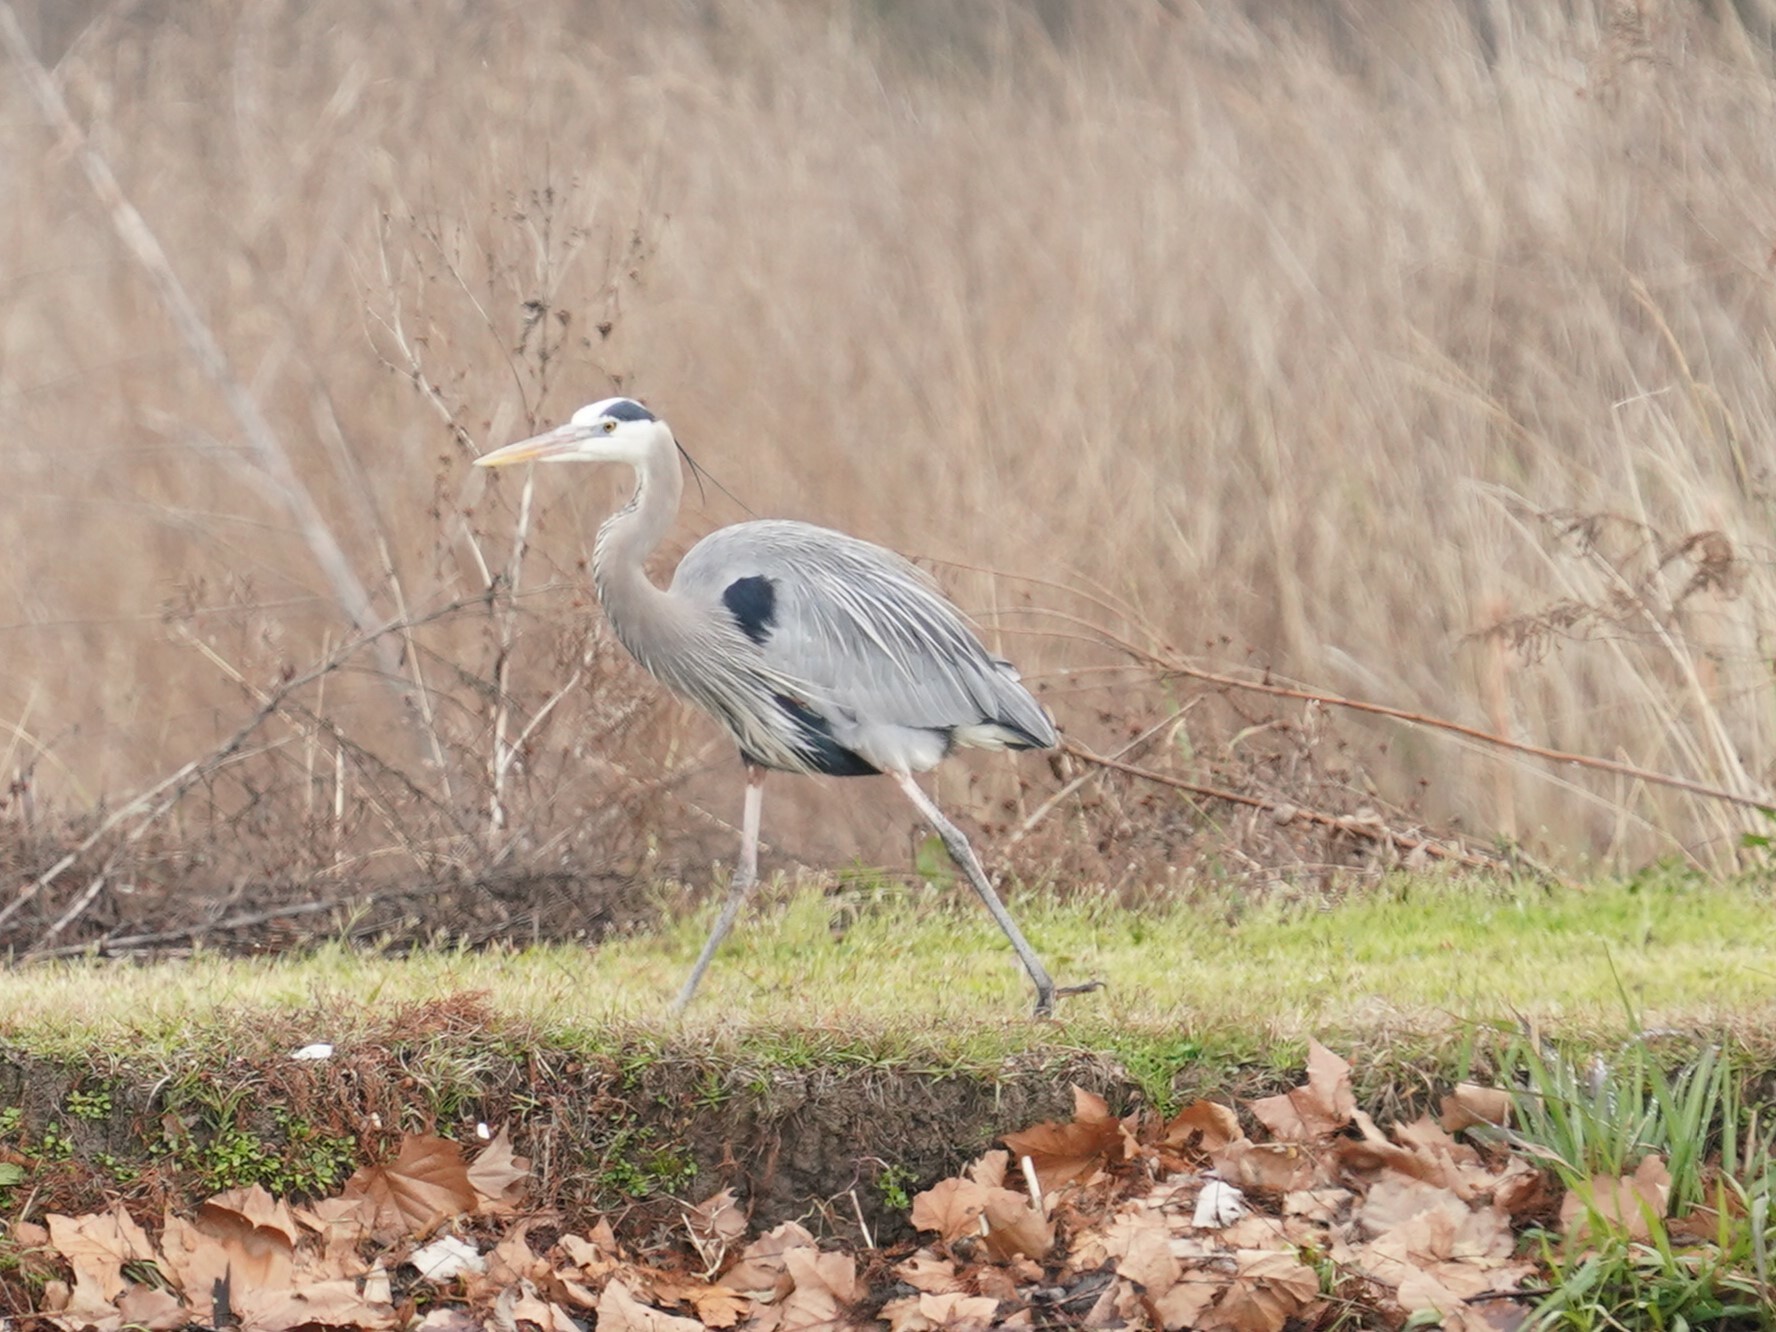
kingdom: Animalia
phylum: Chordata
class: Aves
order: Pelecaniformes
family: Ardeidae
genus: Ardea
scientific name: Ardea herodias
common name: Great blue heron
